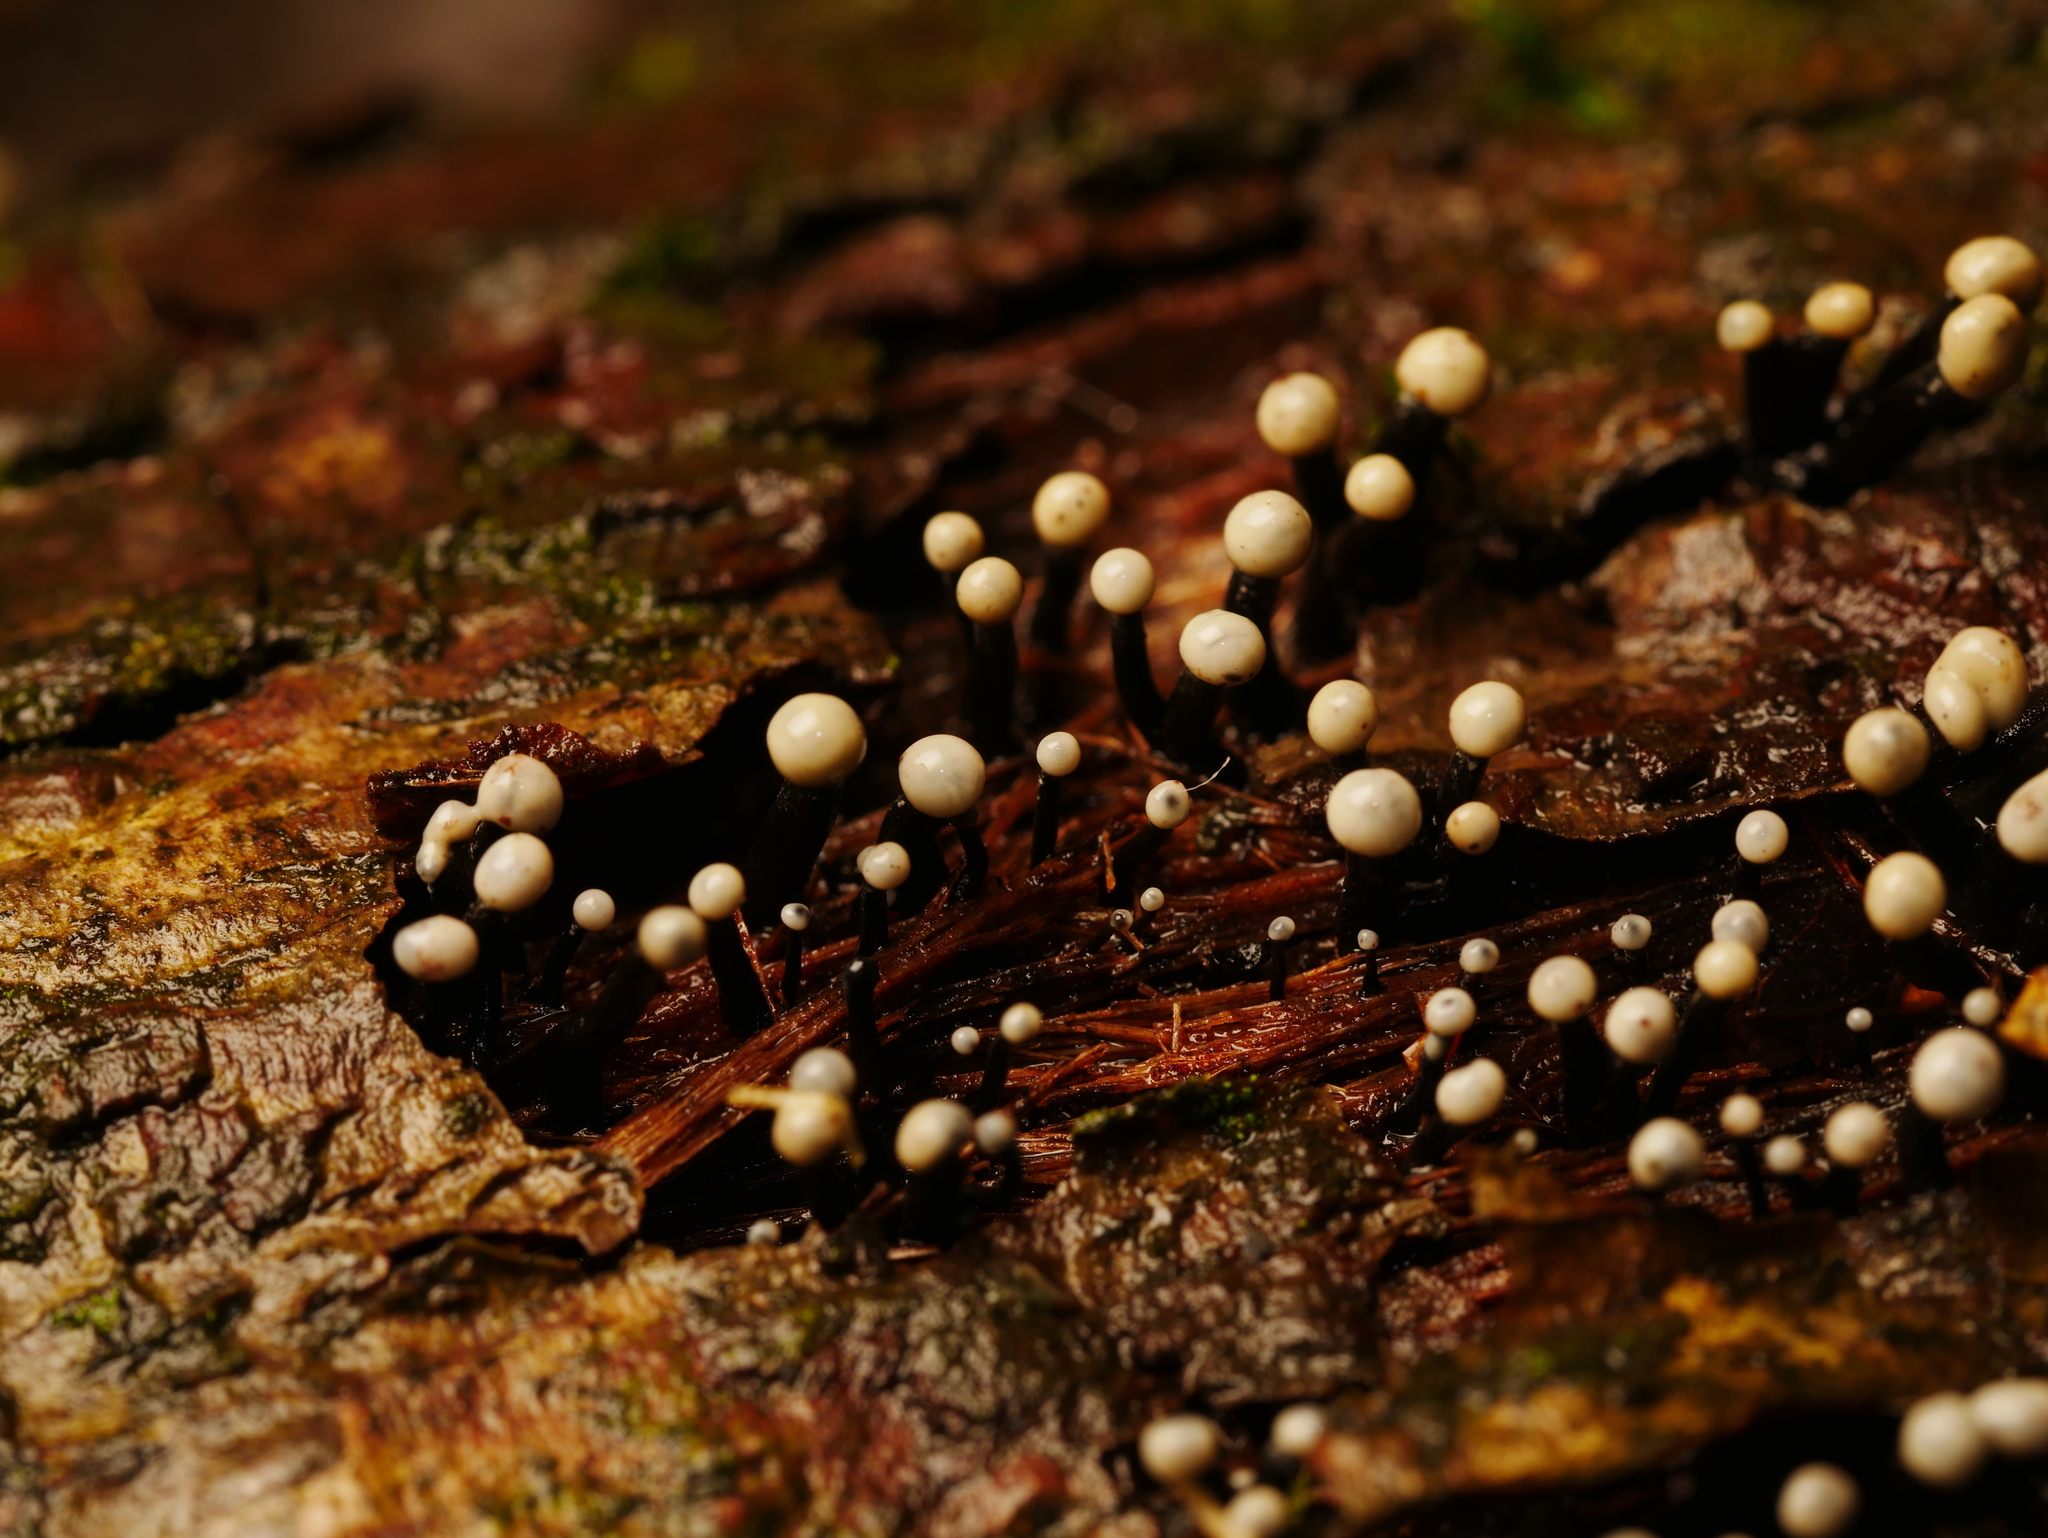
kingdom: Fungi
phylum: Ascomycota
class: Leotiomycetes
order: Helotiales
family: Bulgariaceae
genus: Holwaya
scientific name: Holwaya mucida
